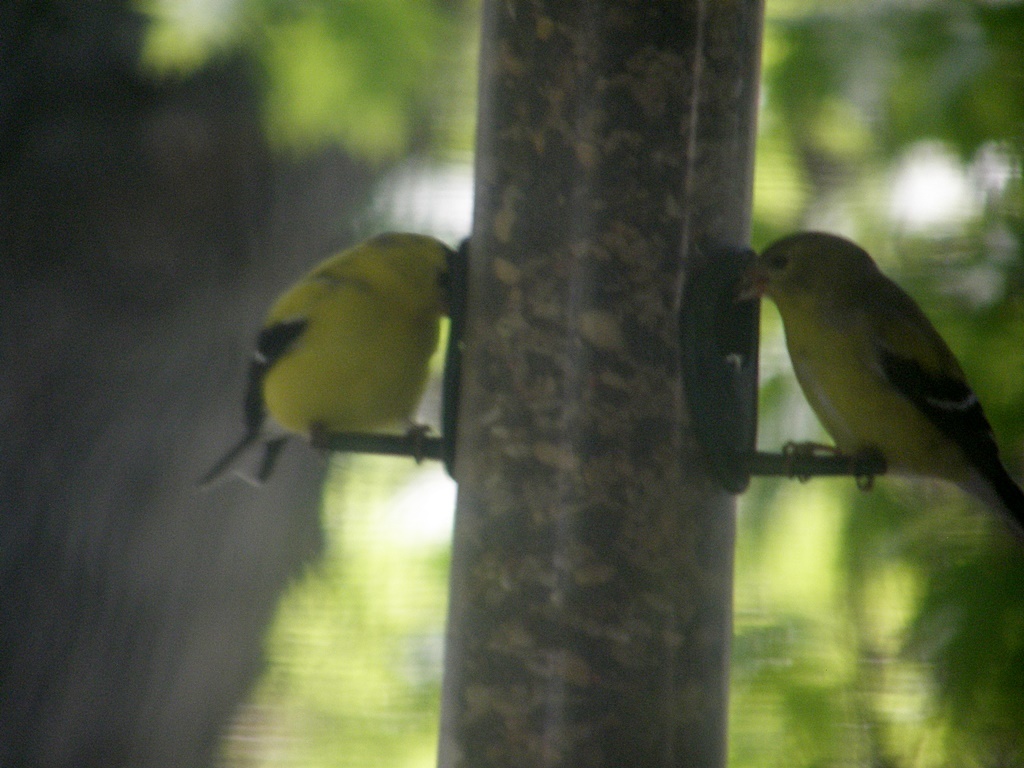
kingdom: Animalia
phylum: Chordata
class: Aves
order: Passeriformes
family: Fringillidae
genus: Spinus
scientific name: Spinus tristis
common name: American goldfinch
